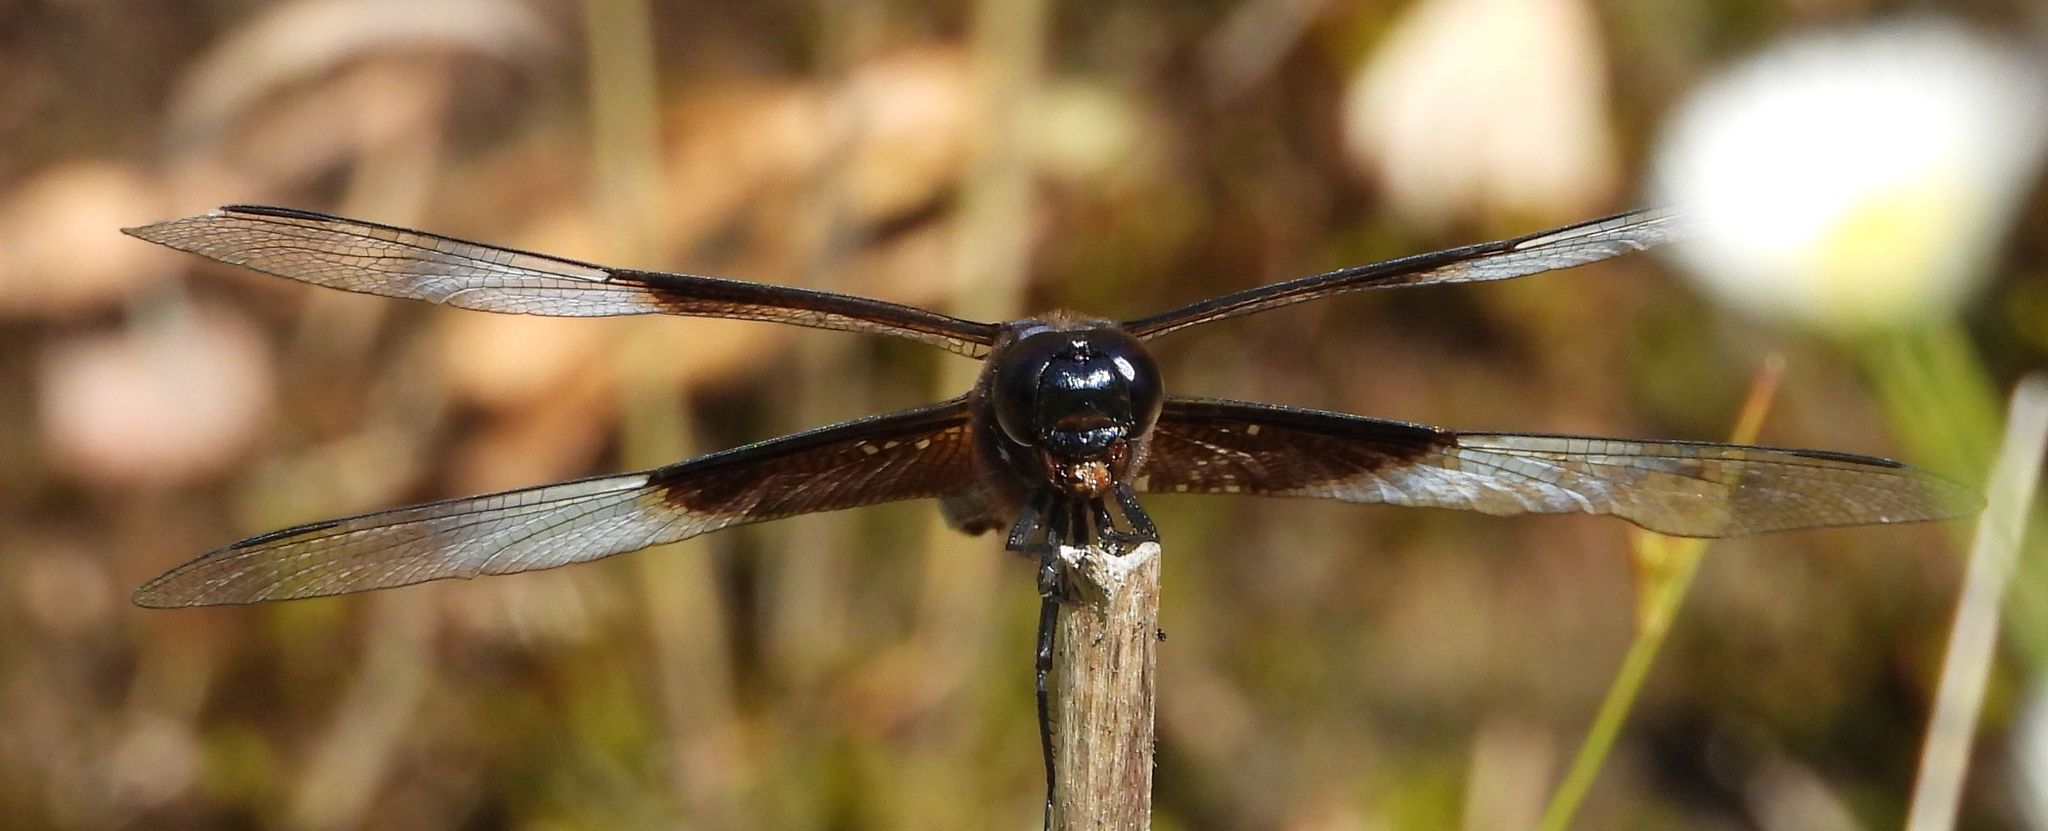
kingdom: Animalia
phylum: Arthropoda
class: Insecta
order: Odonata
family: Libellulidae
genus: Libellula
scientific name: Libellula luctuosa
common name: Widow skimmer
